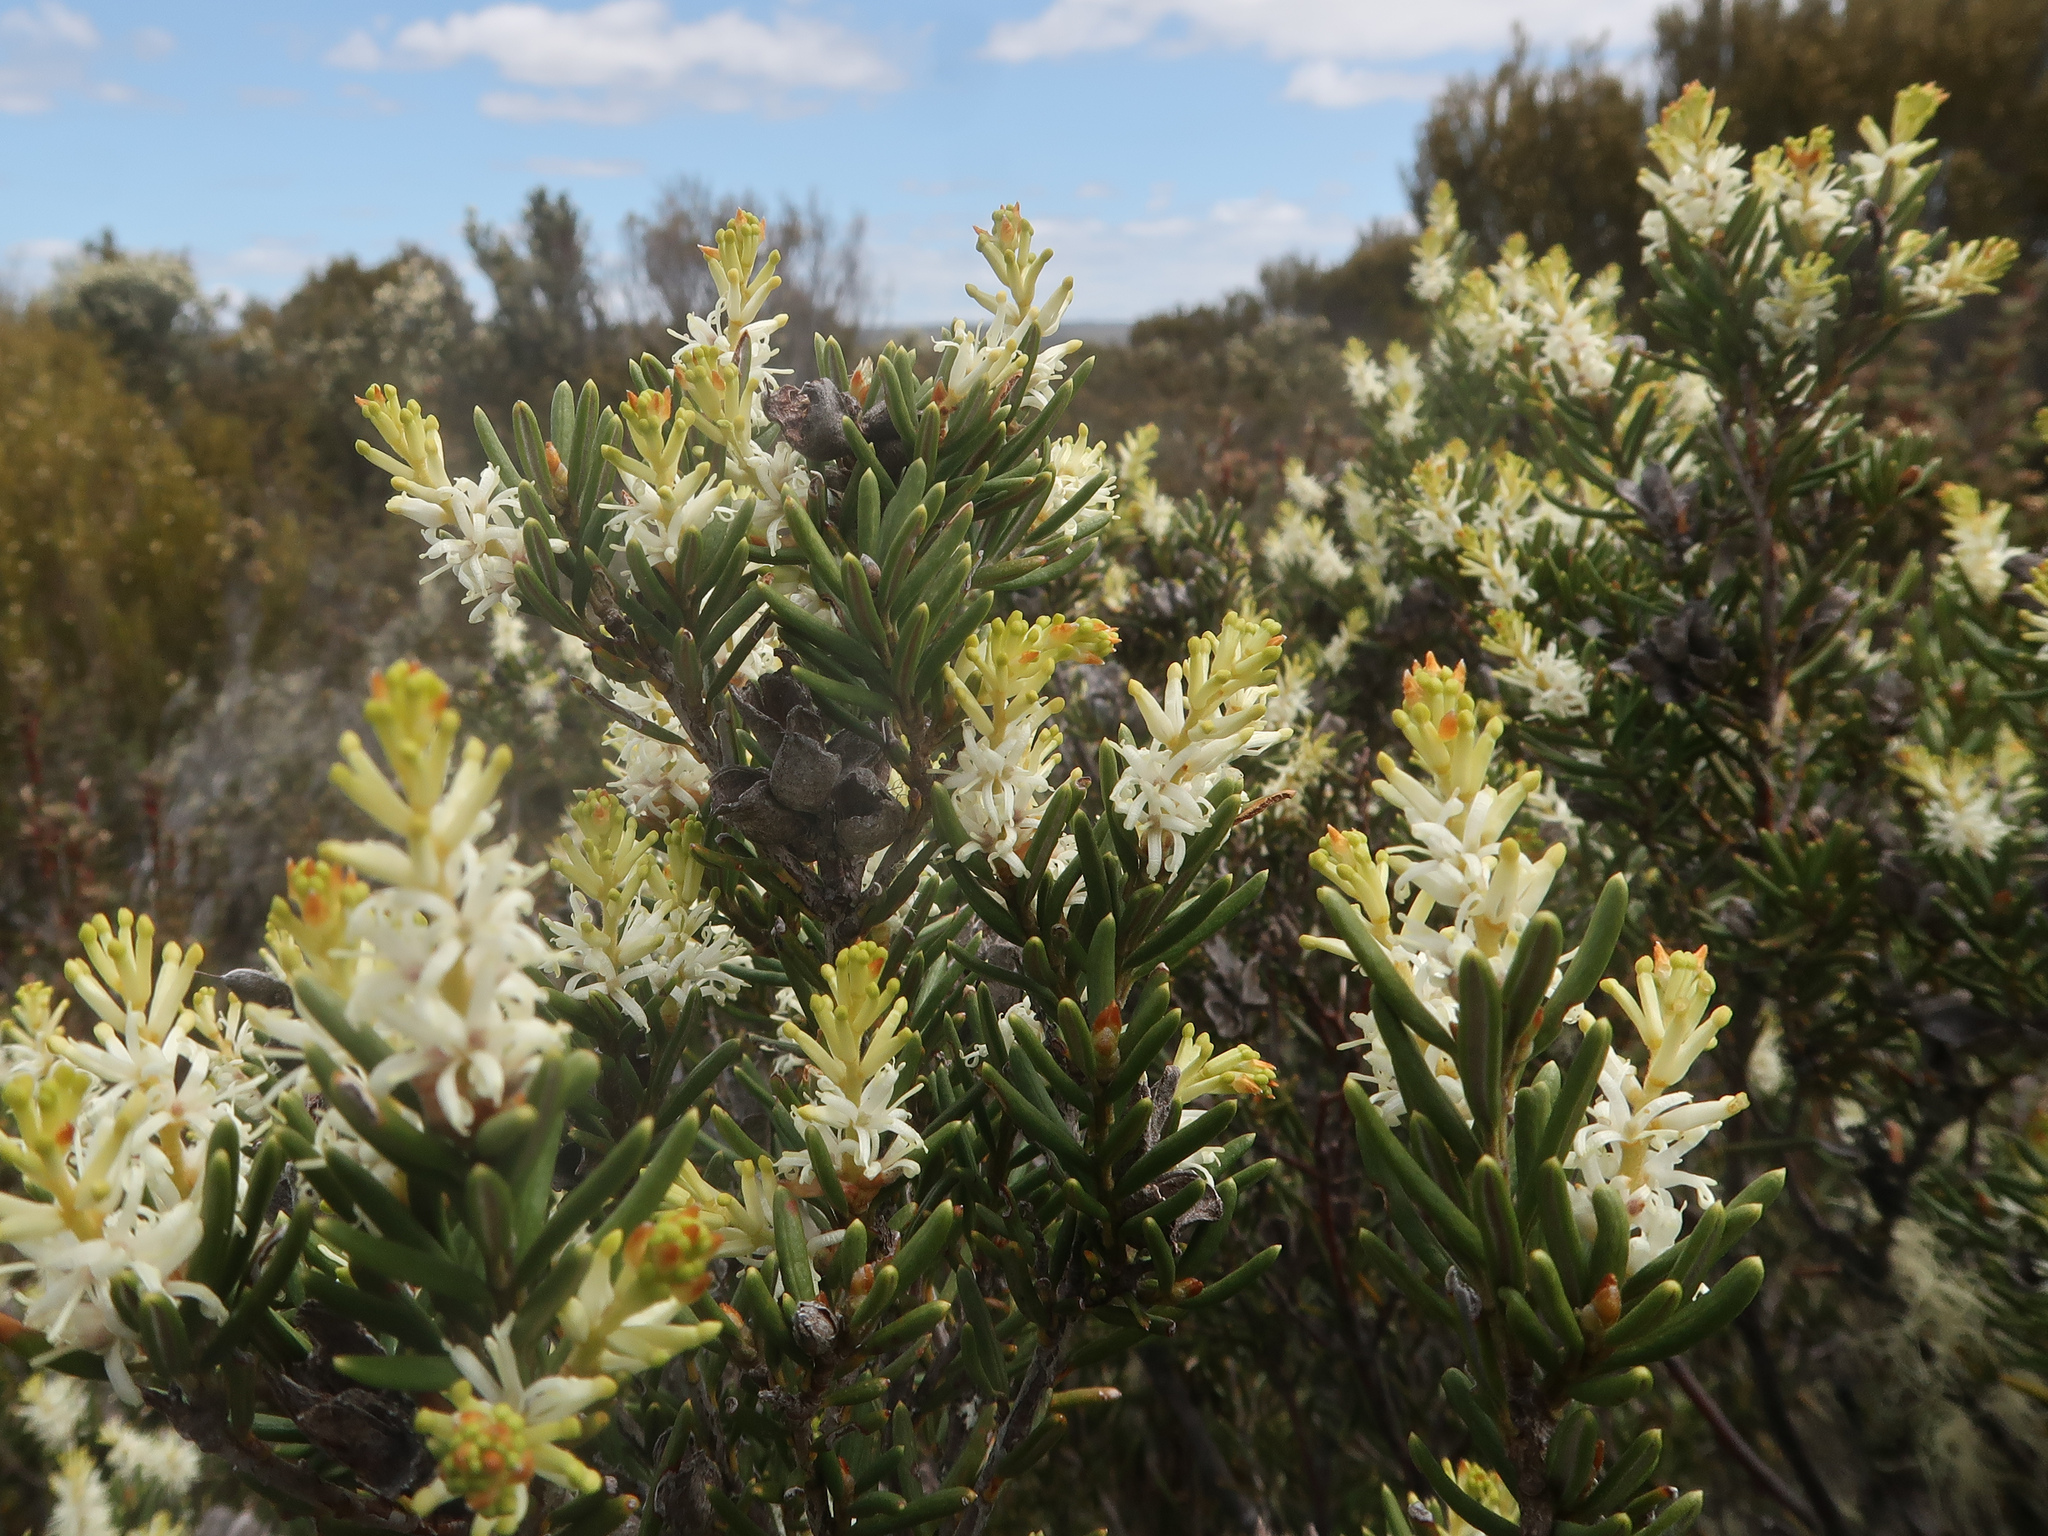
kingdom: Plantae
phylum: Tracheophyta
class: Magnoliopsida
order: Proteales
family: Proteaceae
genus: Orites
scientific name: Orites revolutus
